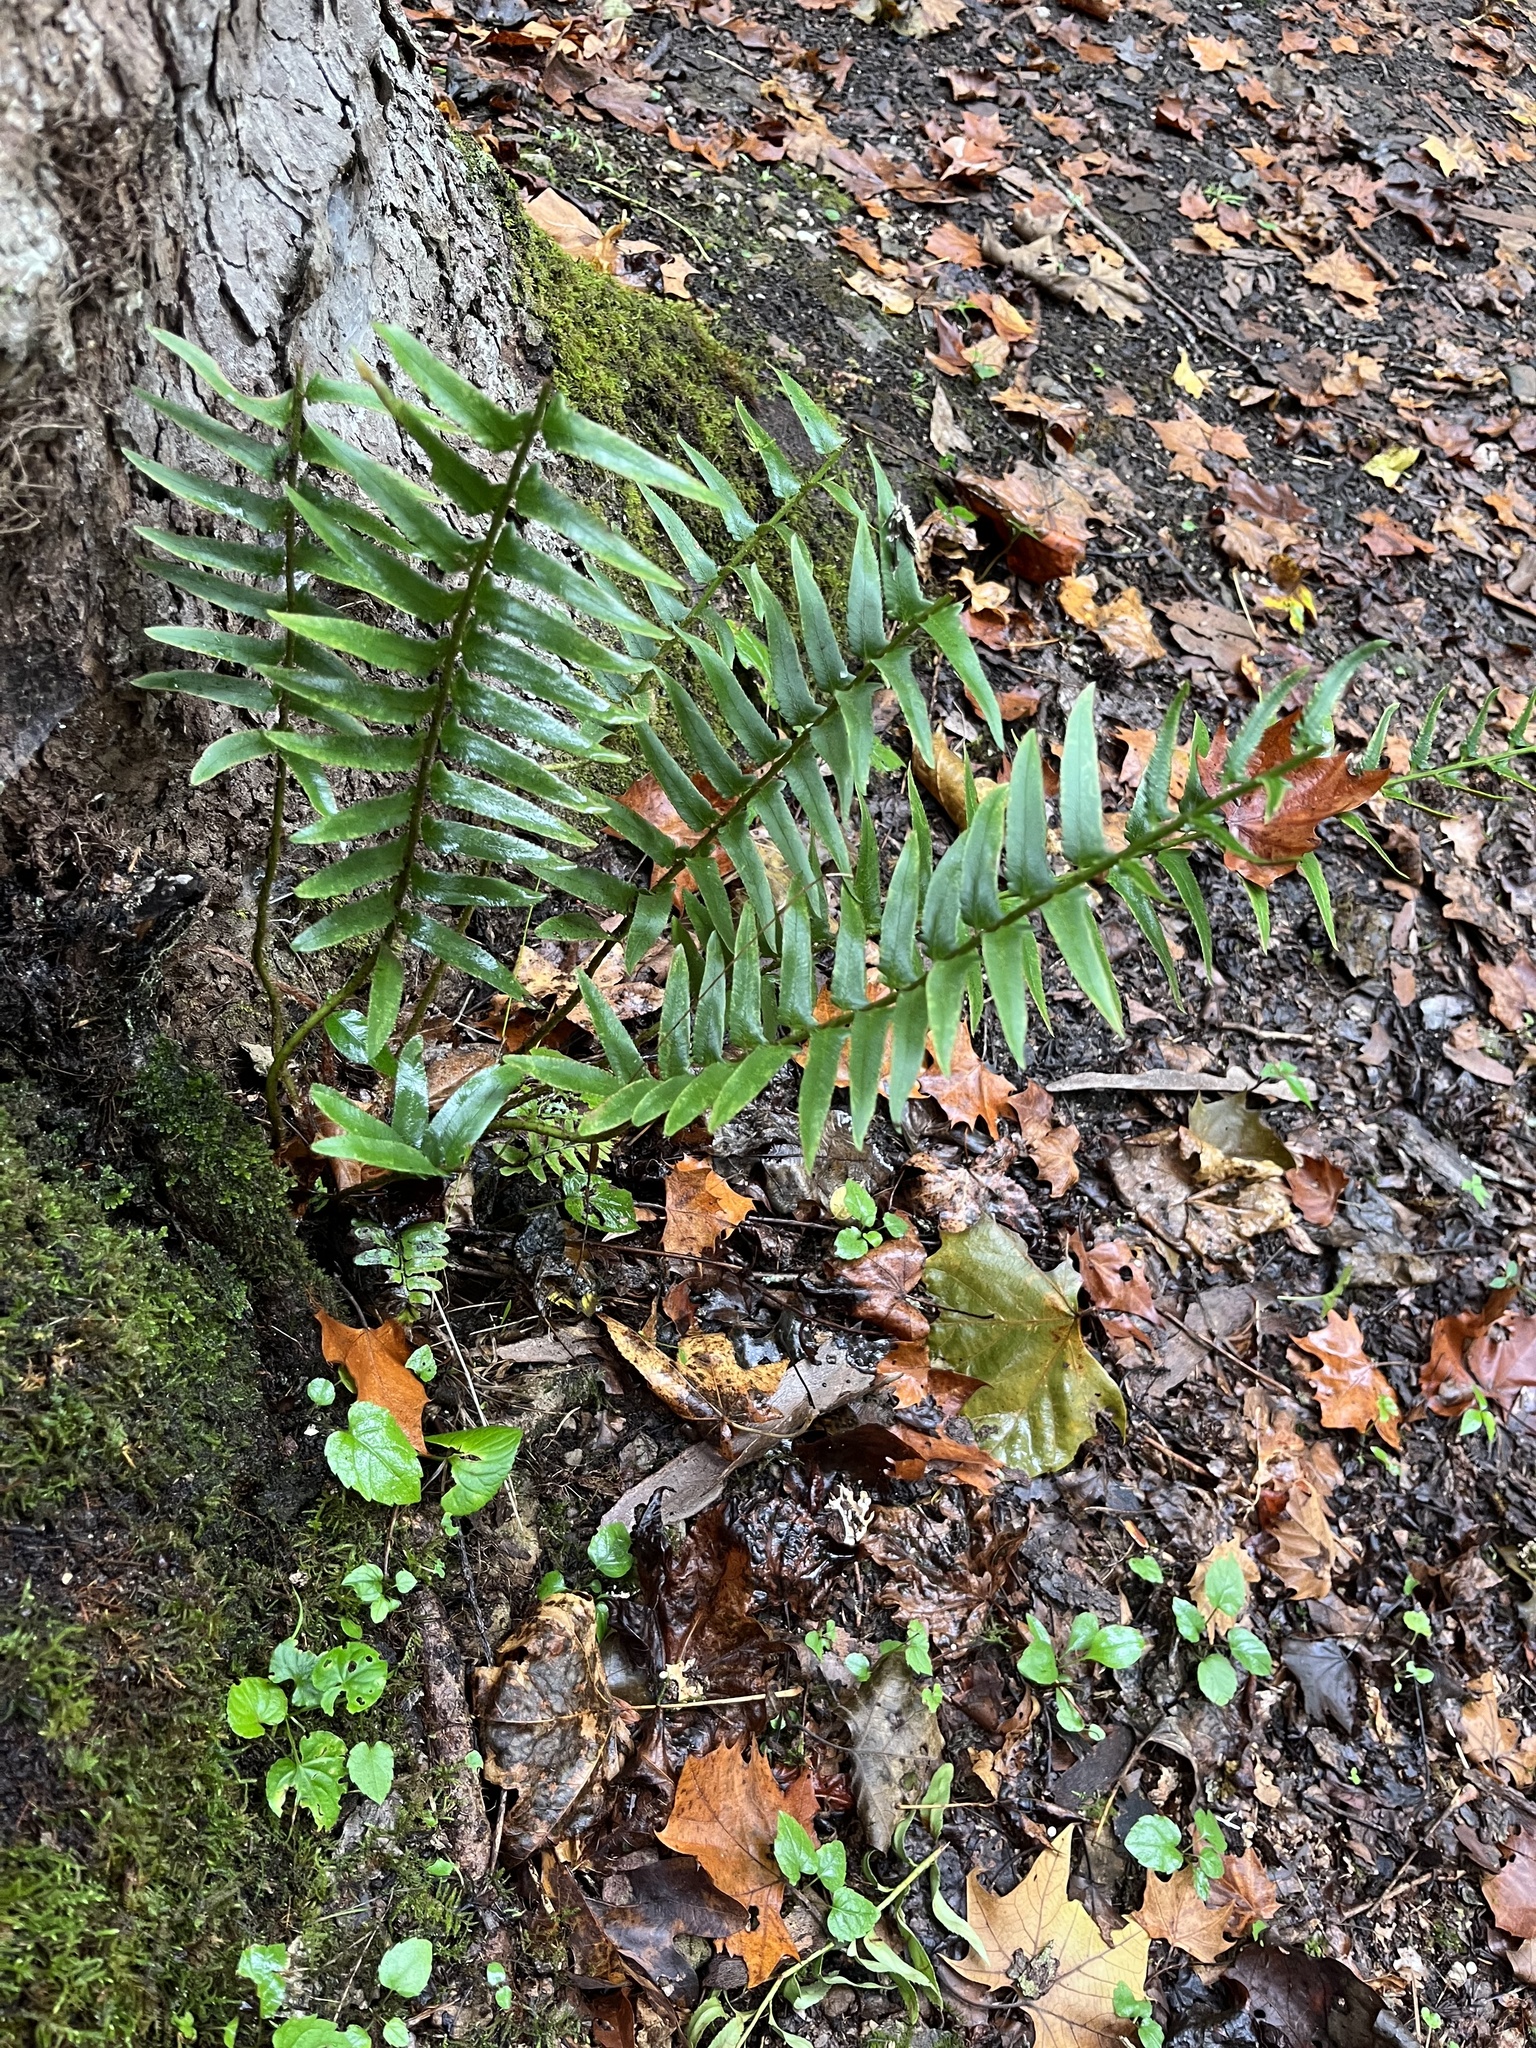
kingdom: Plantae
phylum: Tracheophyta
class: Polypodiopsida
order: Polypodiales
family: Dryopteridaceae
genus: Polystichum
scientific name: Polystichum acrostichoides
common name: Christmas fern
